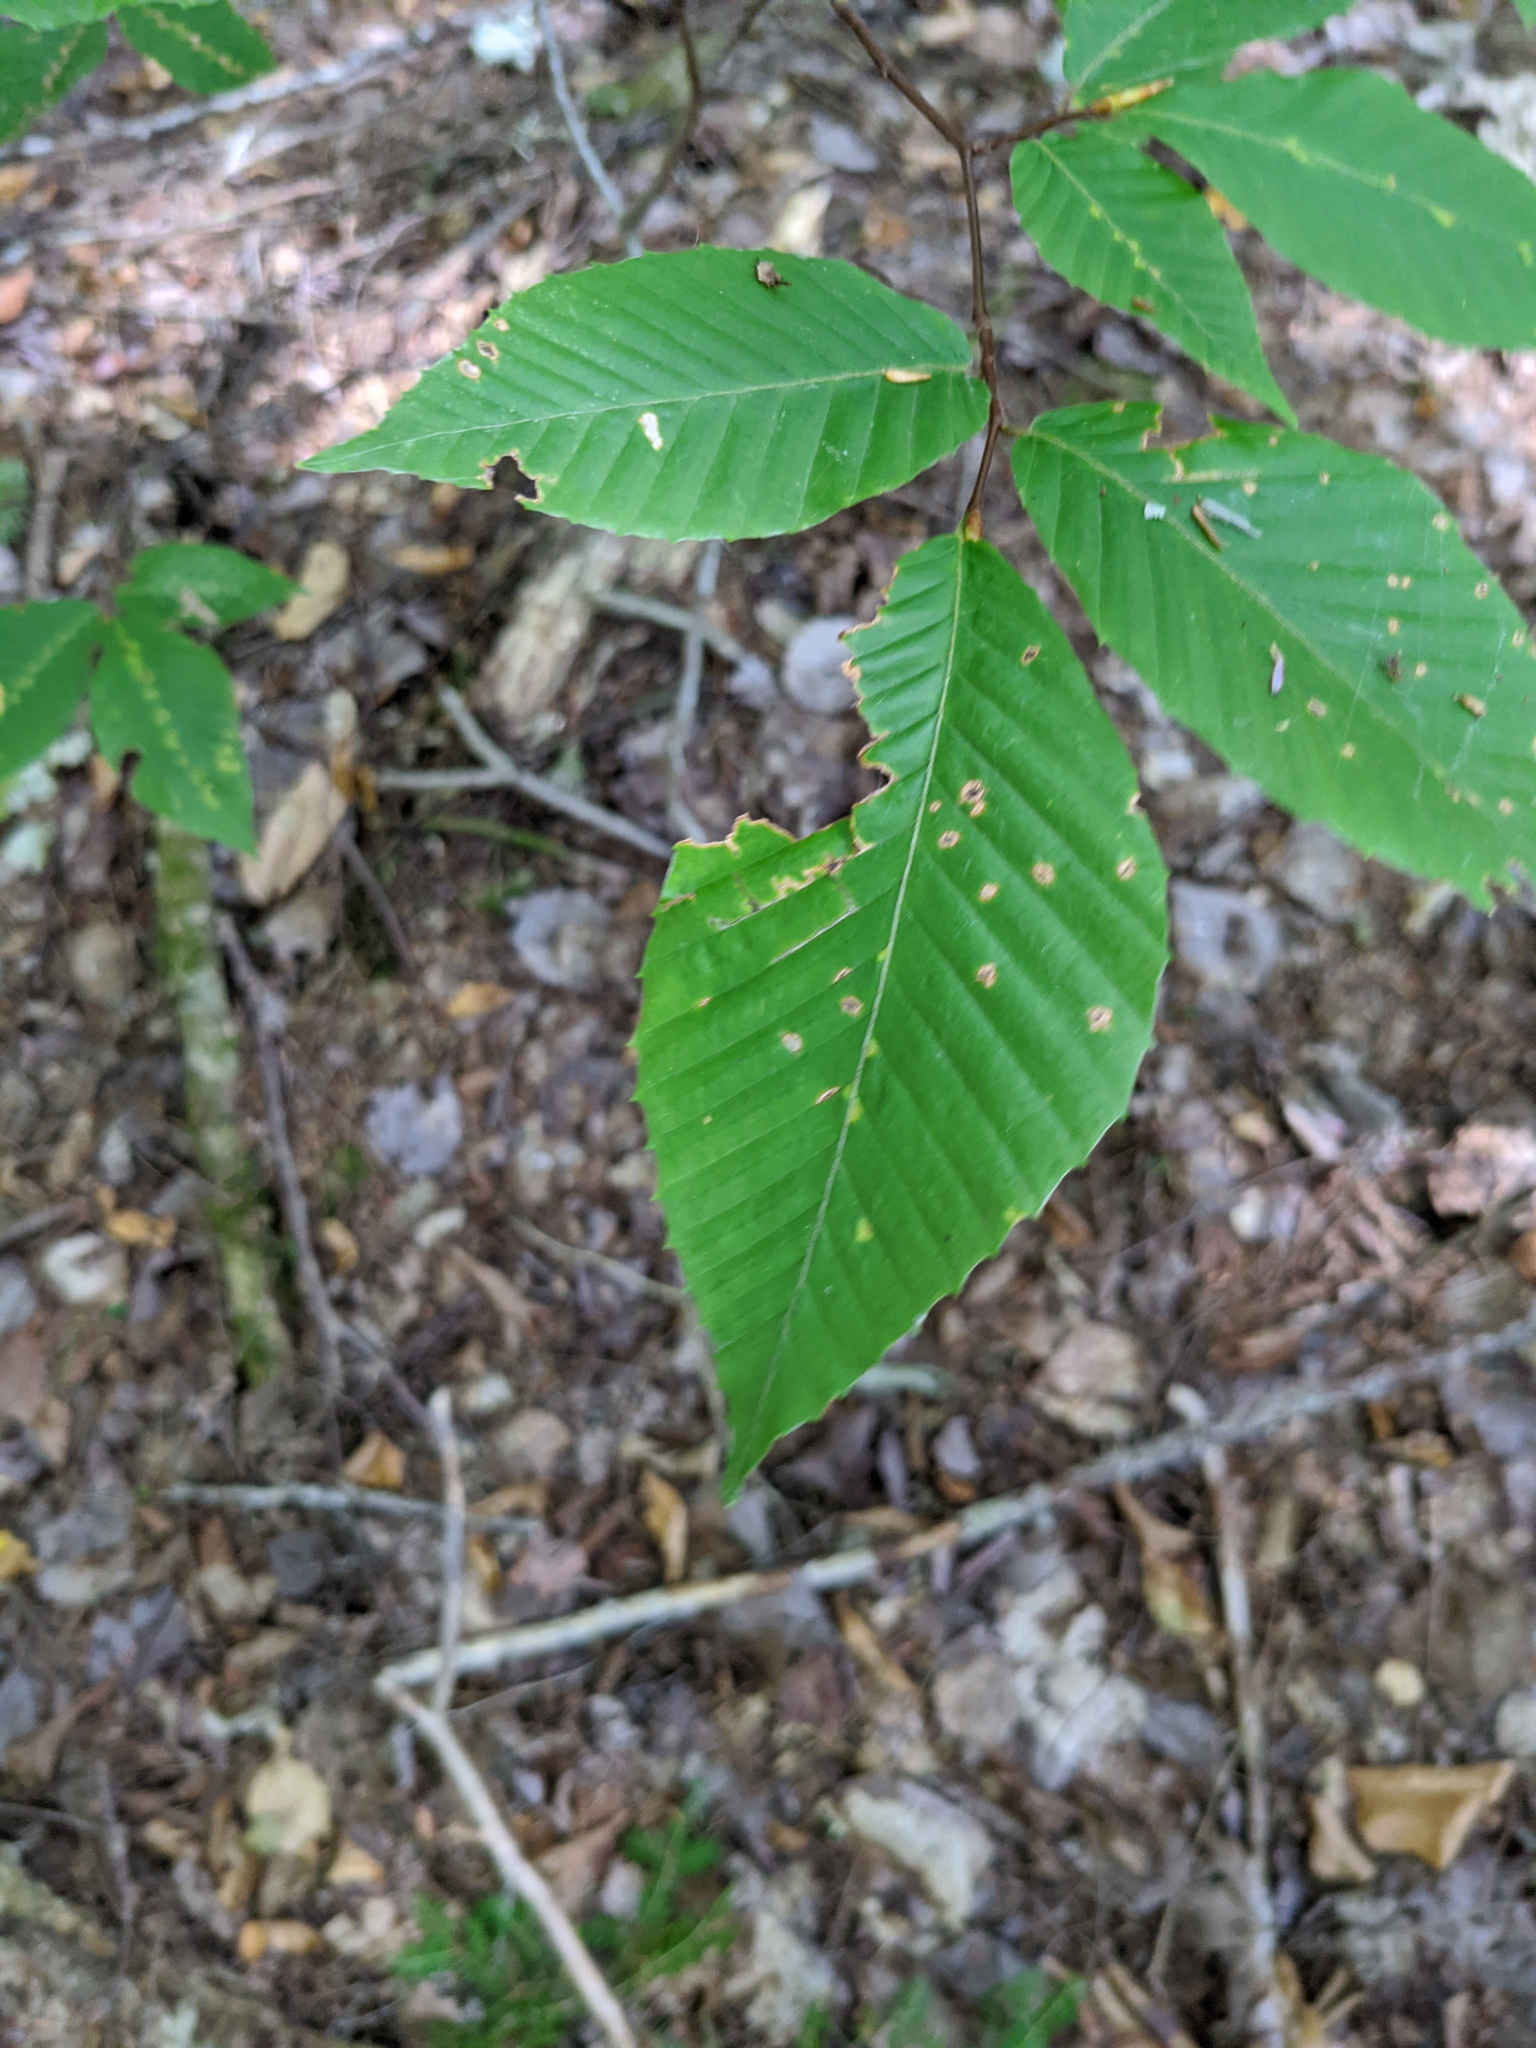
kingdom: Plantae
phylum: Tracheophyta
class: Magnoliopsida
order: Fagales
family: Fagaceae
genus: Fagus
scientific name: Fagus grandifolia
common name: American beech
